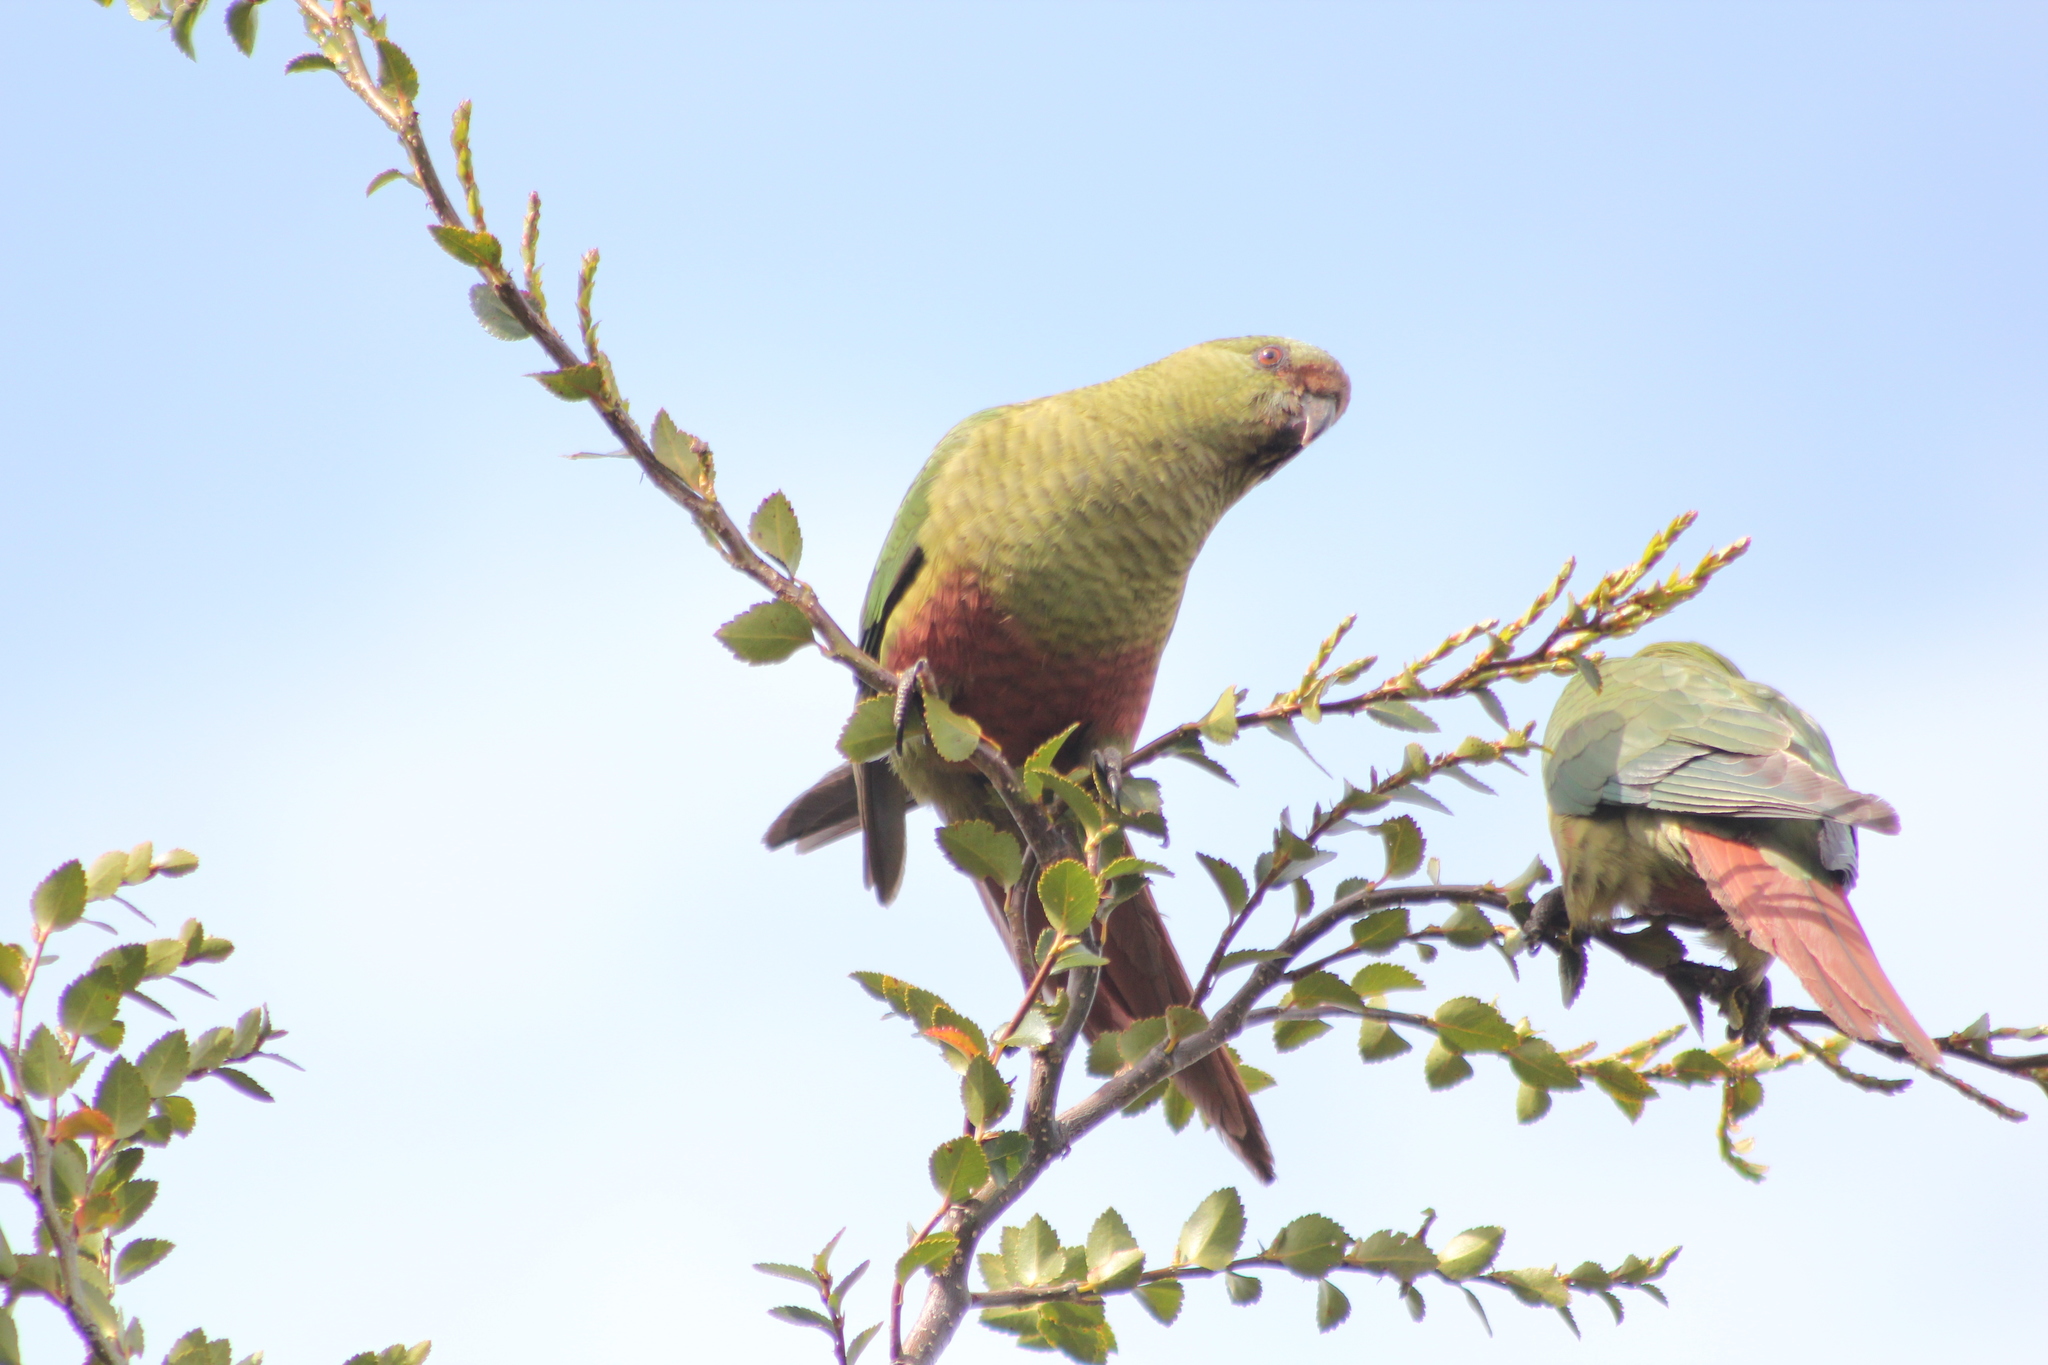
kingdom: Animalia
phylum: Chordata
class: Aves
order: Psittaciformes
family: Psittacidae
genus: Enicognathus
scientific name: Enicognathus ferrugineus
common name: Austral parakeet
